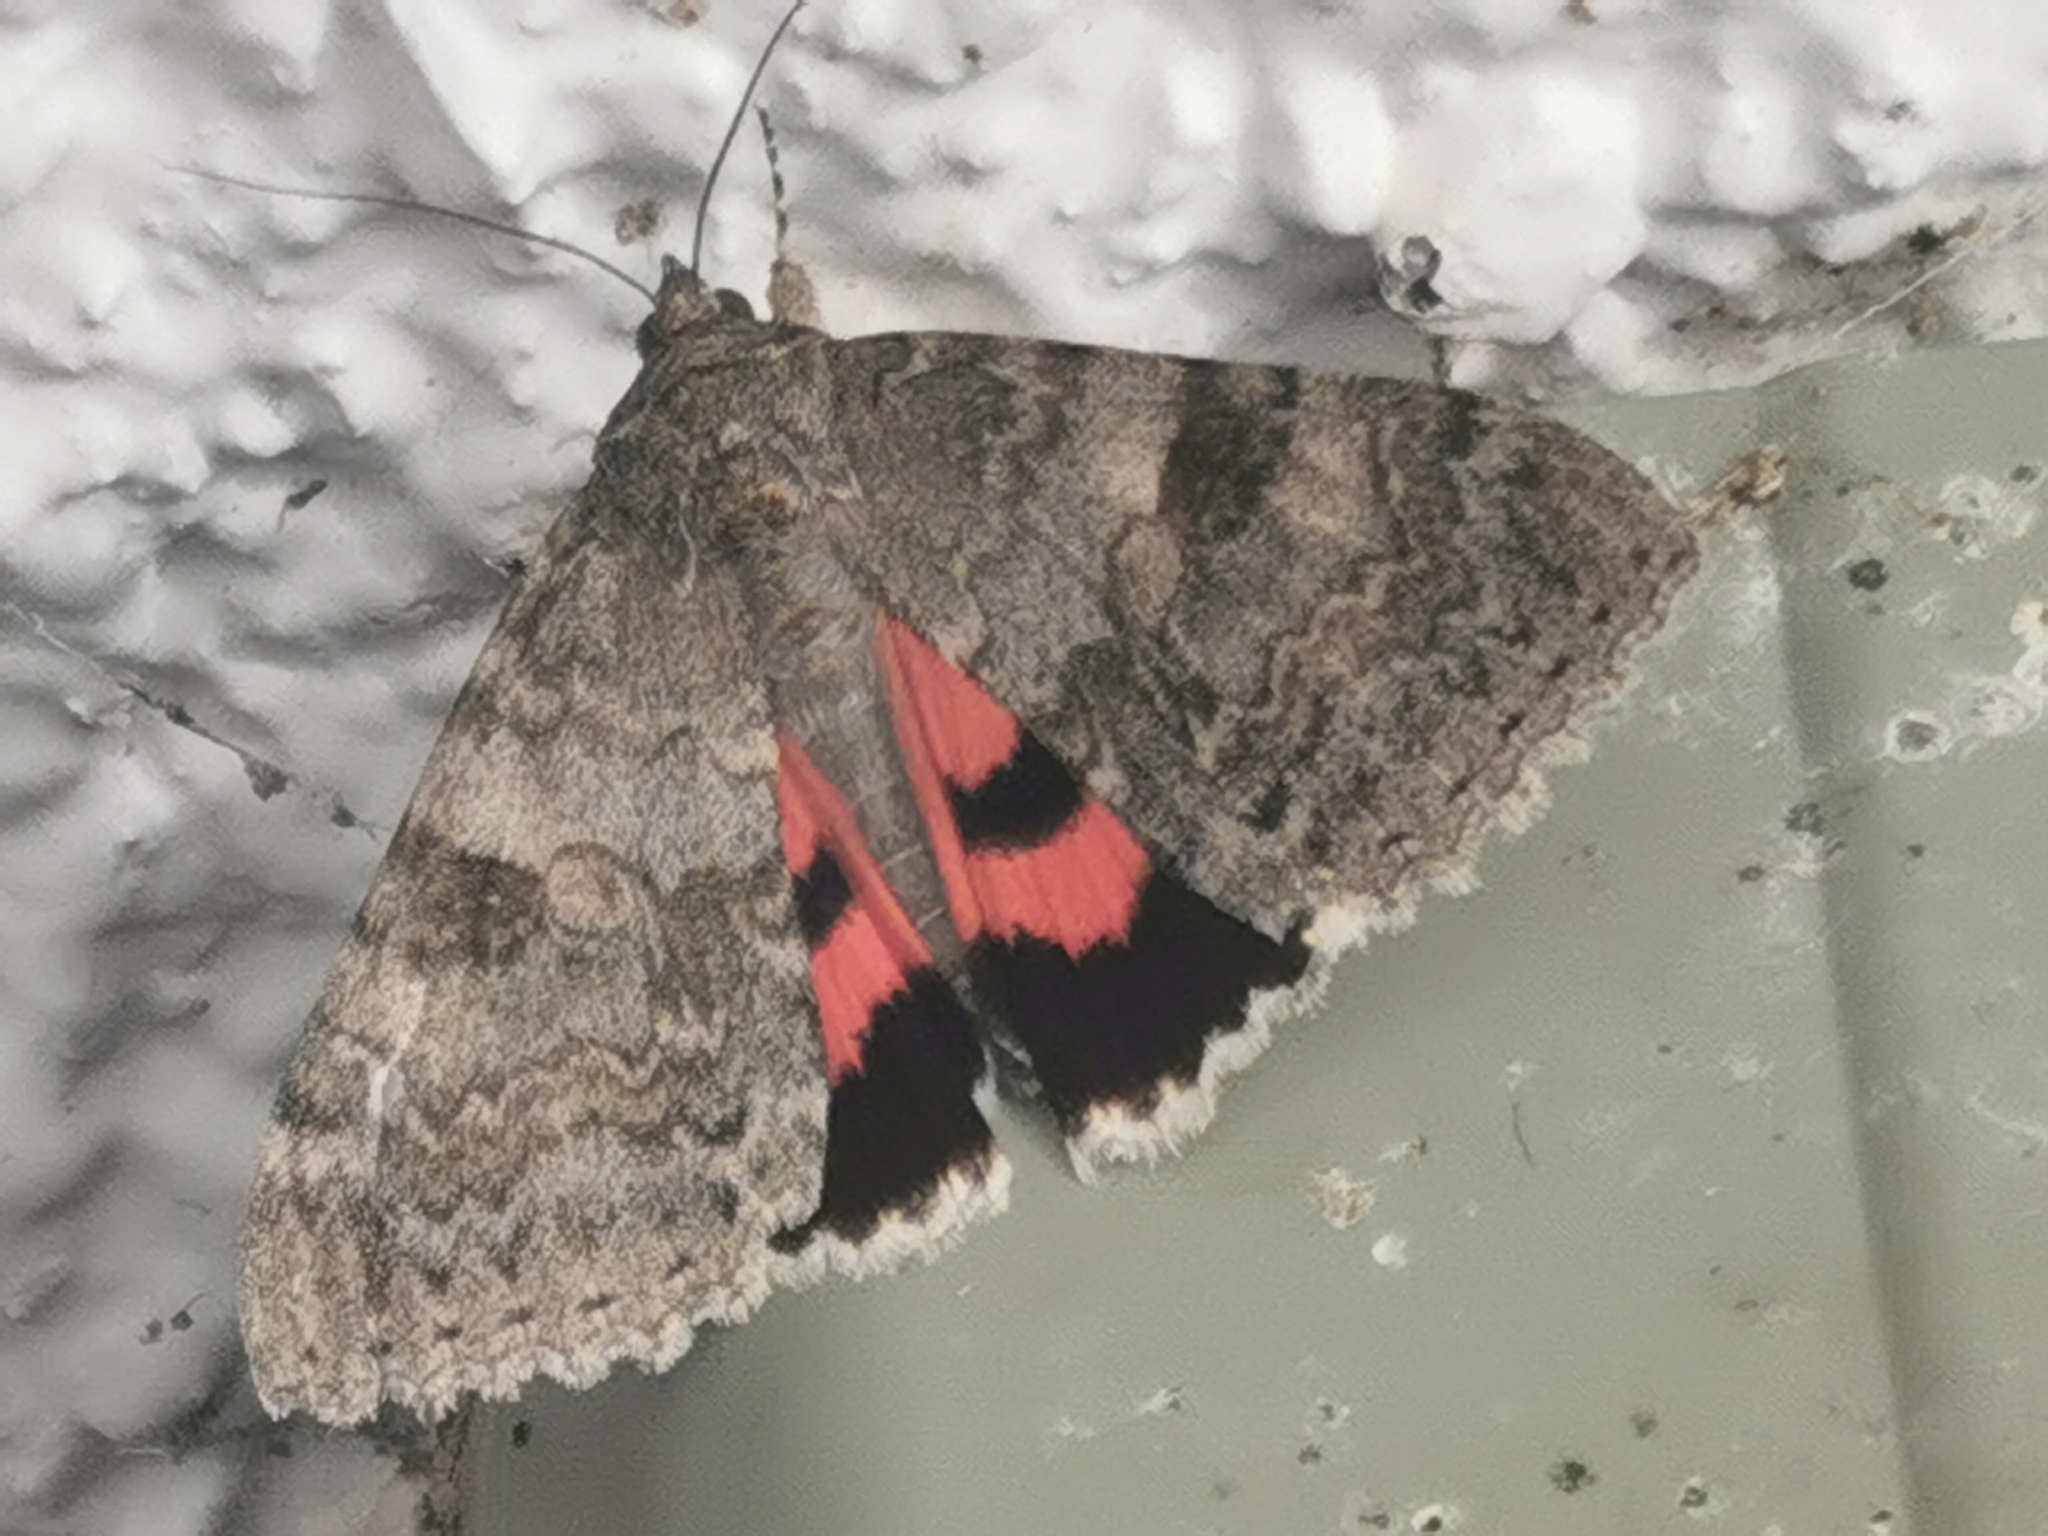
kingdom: Animalia
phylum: Arthropoda
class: Insecta
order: Lepidoptera
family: Erebidae
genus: Catocala
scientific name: Catocala nupta
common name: Red underwing
